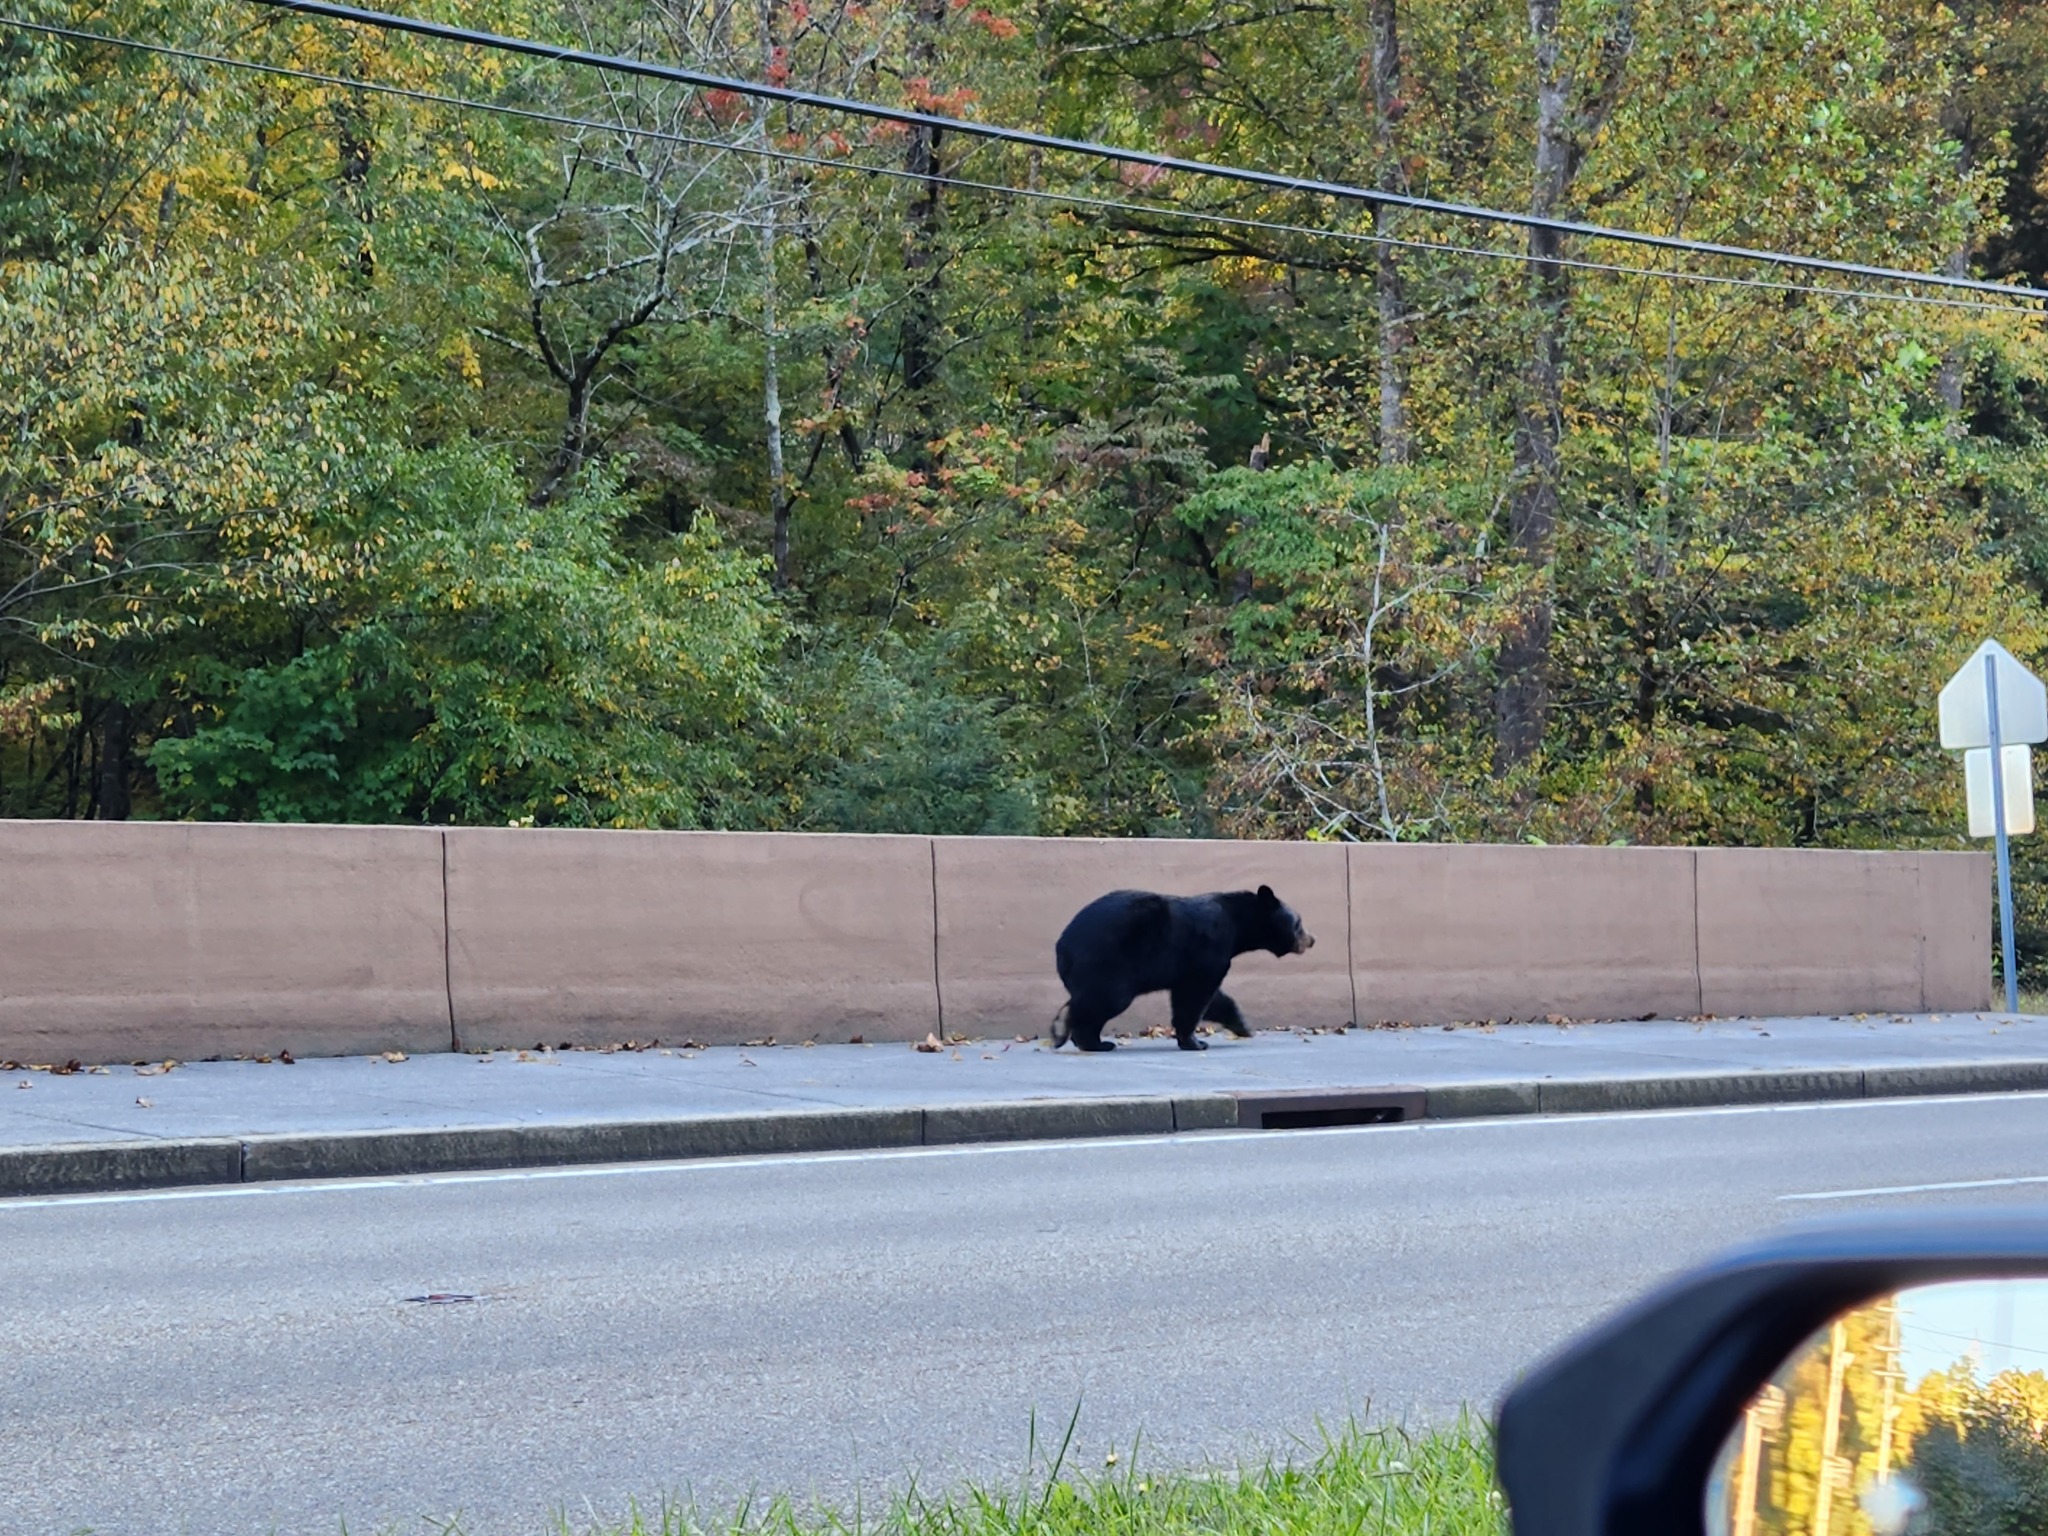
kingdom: Animalia
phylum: Chordata
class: Mammalia
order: Carnivora
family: Ursidae
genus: Ursus
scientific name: Ursus americanus
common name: American black bear
